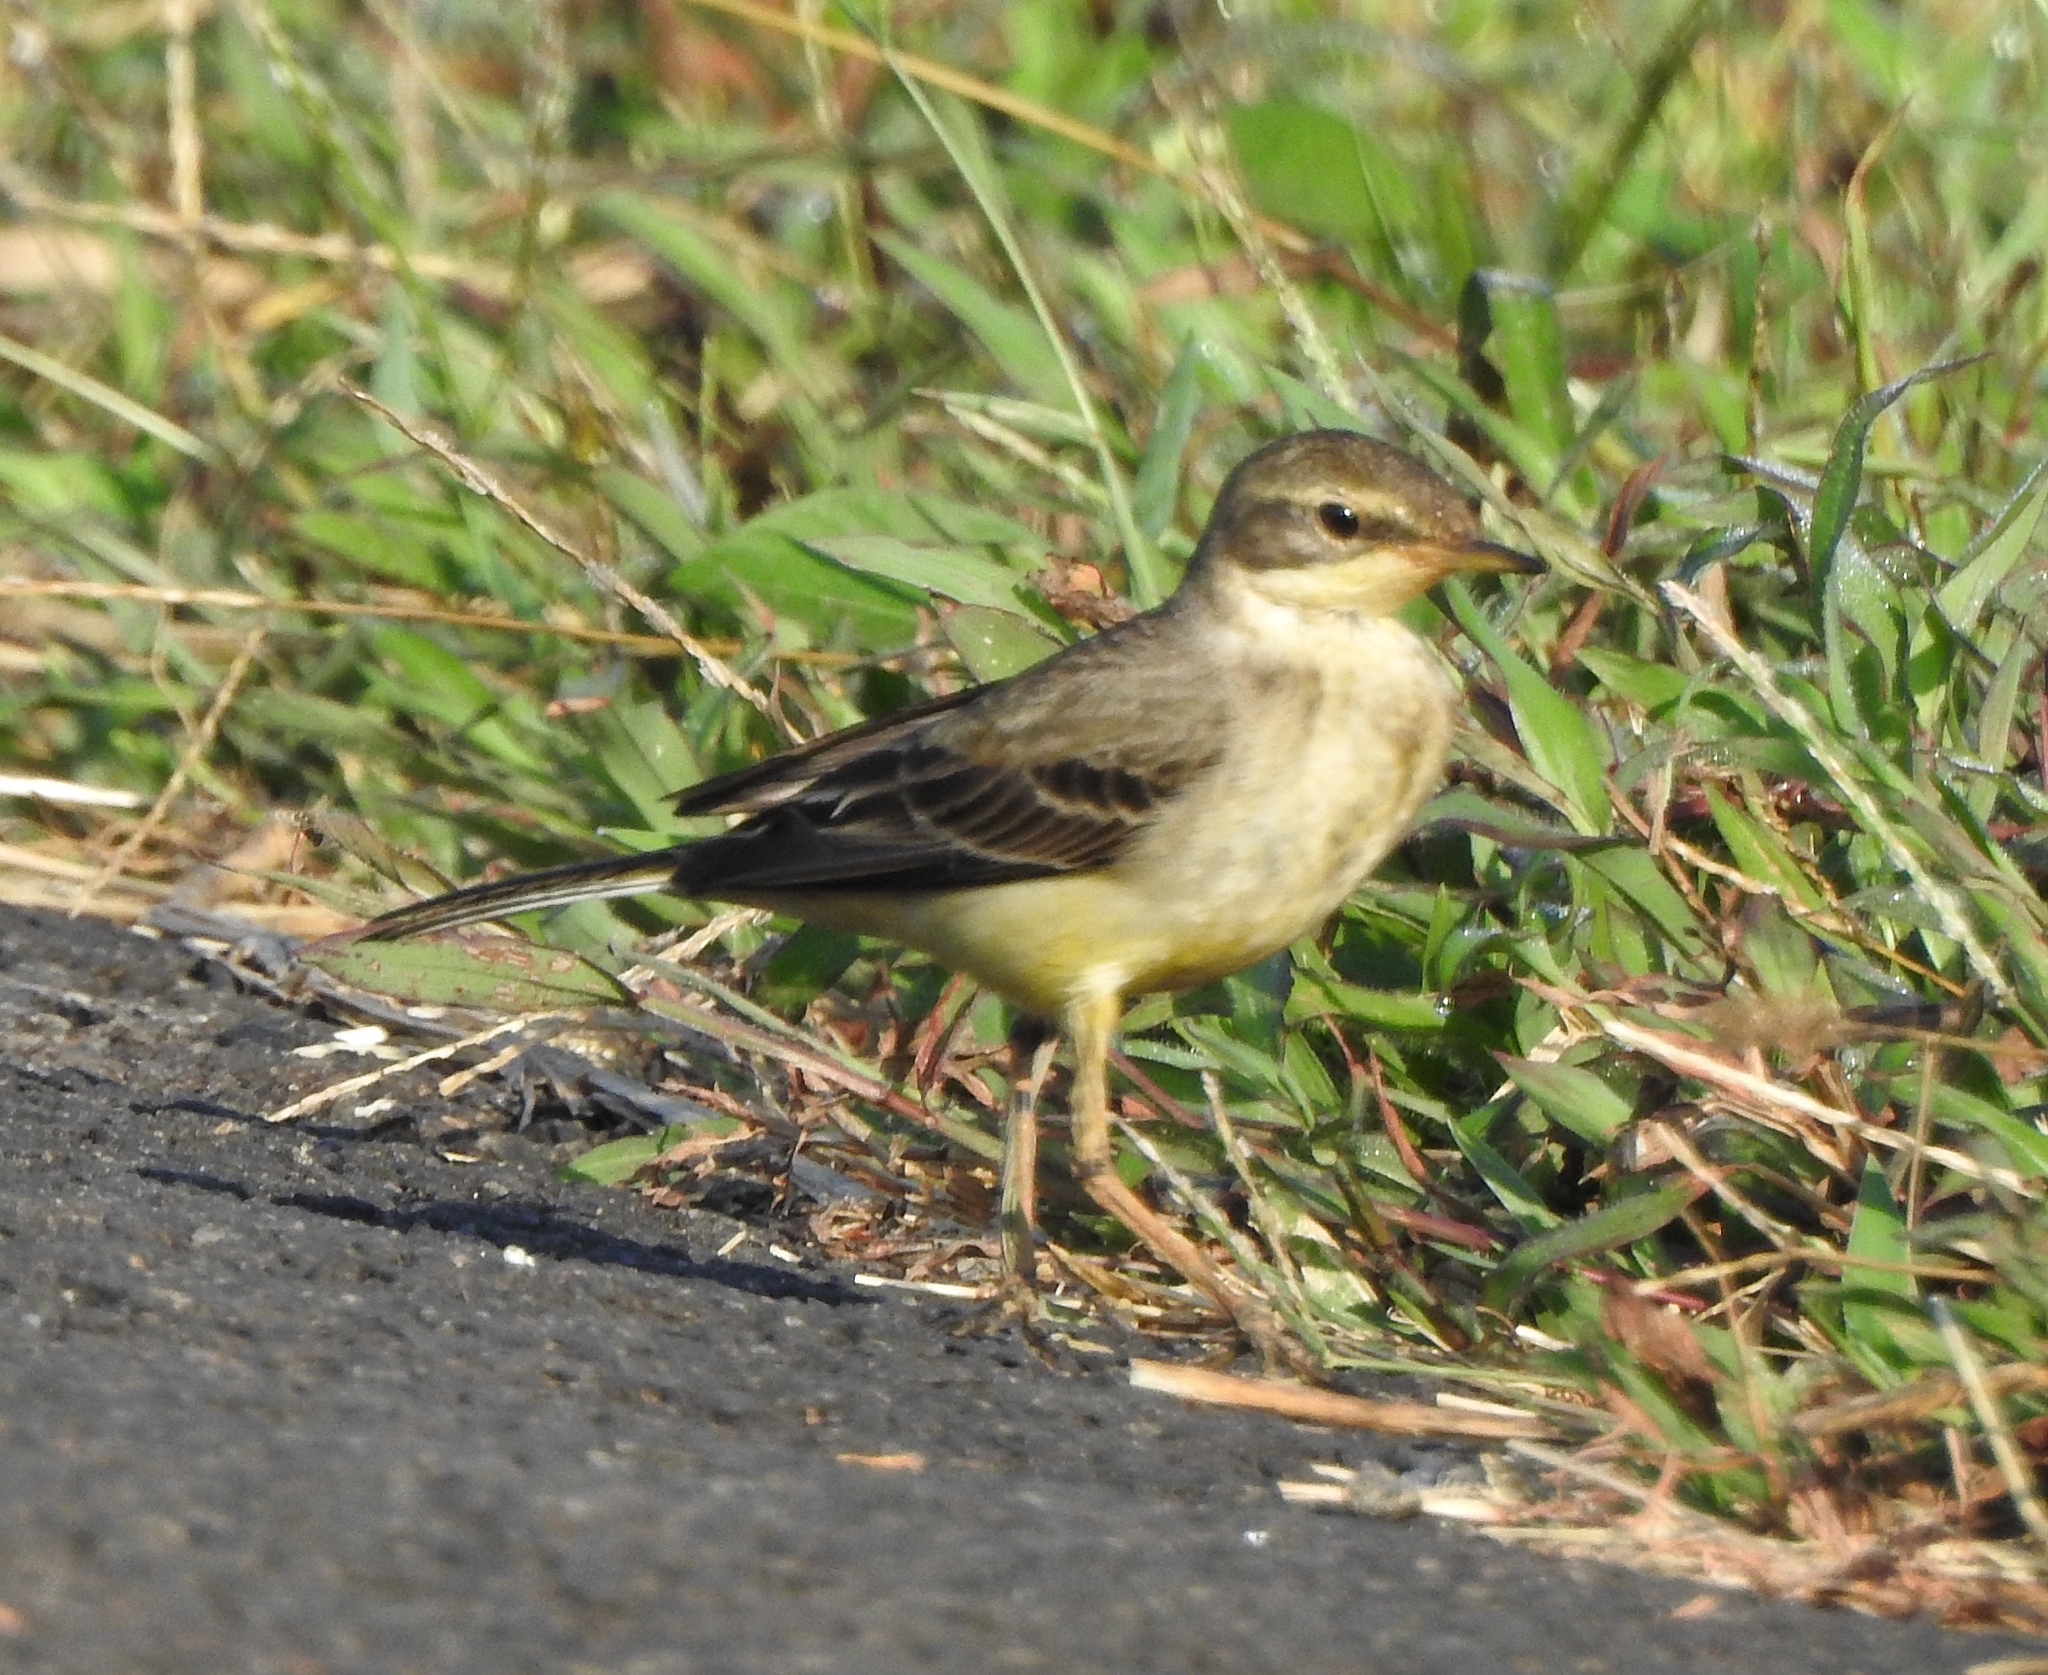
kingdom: Animalia
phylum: Chordata
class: Aves
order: Passeriformes
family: Motacillidae
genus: Motacilla
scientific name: Motacilla flava
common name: Western yellow wagtail
